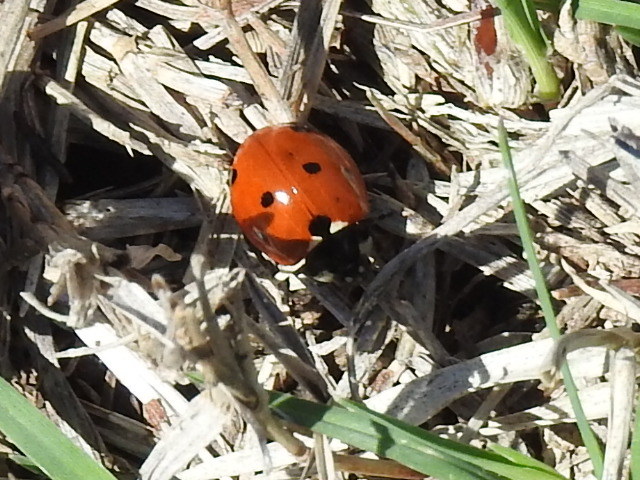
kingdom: Animalia
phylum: Arthropoda
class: Insecta
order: Coleoptera
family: Coccinellidae
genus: Coccinella
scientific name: Coccinella septempunctata
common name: Sevenspotted lady beetle
